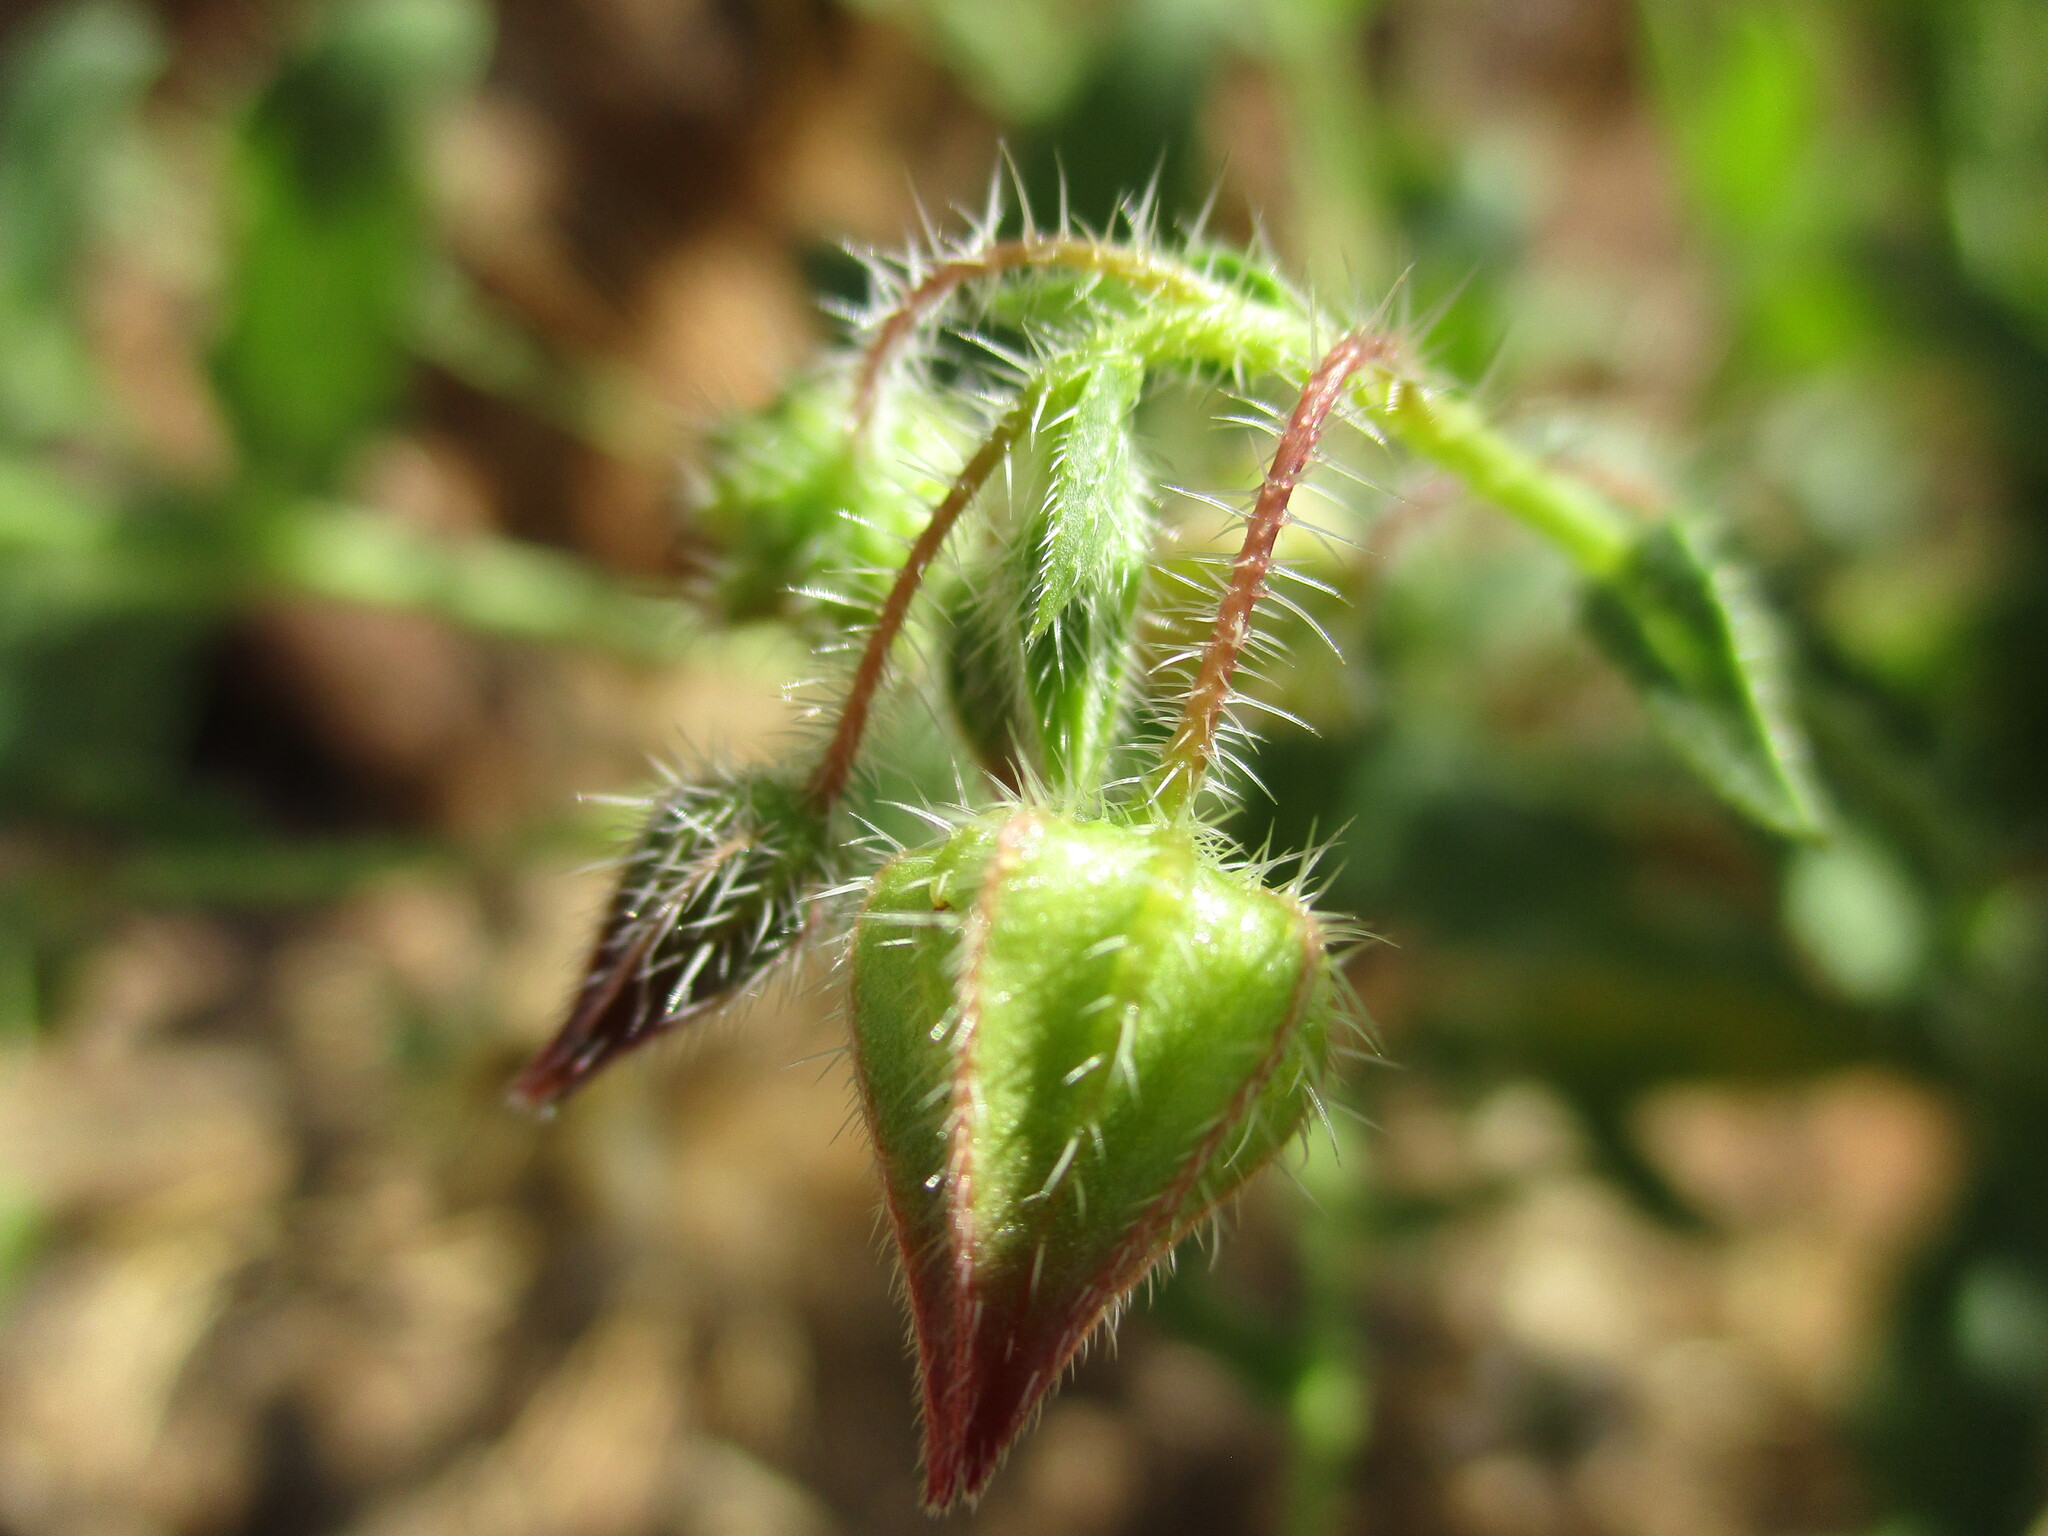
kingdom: Plantae
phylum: Tracheophyta
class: Magnoliopsida
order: Boraginales
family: Boraginaceae
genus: Trichodesma
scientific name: Trichodesma africanum
